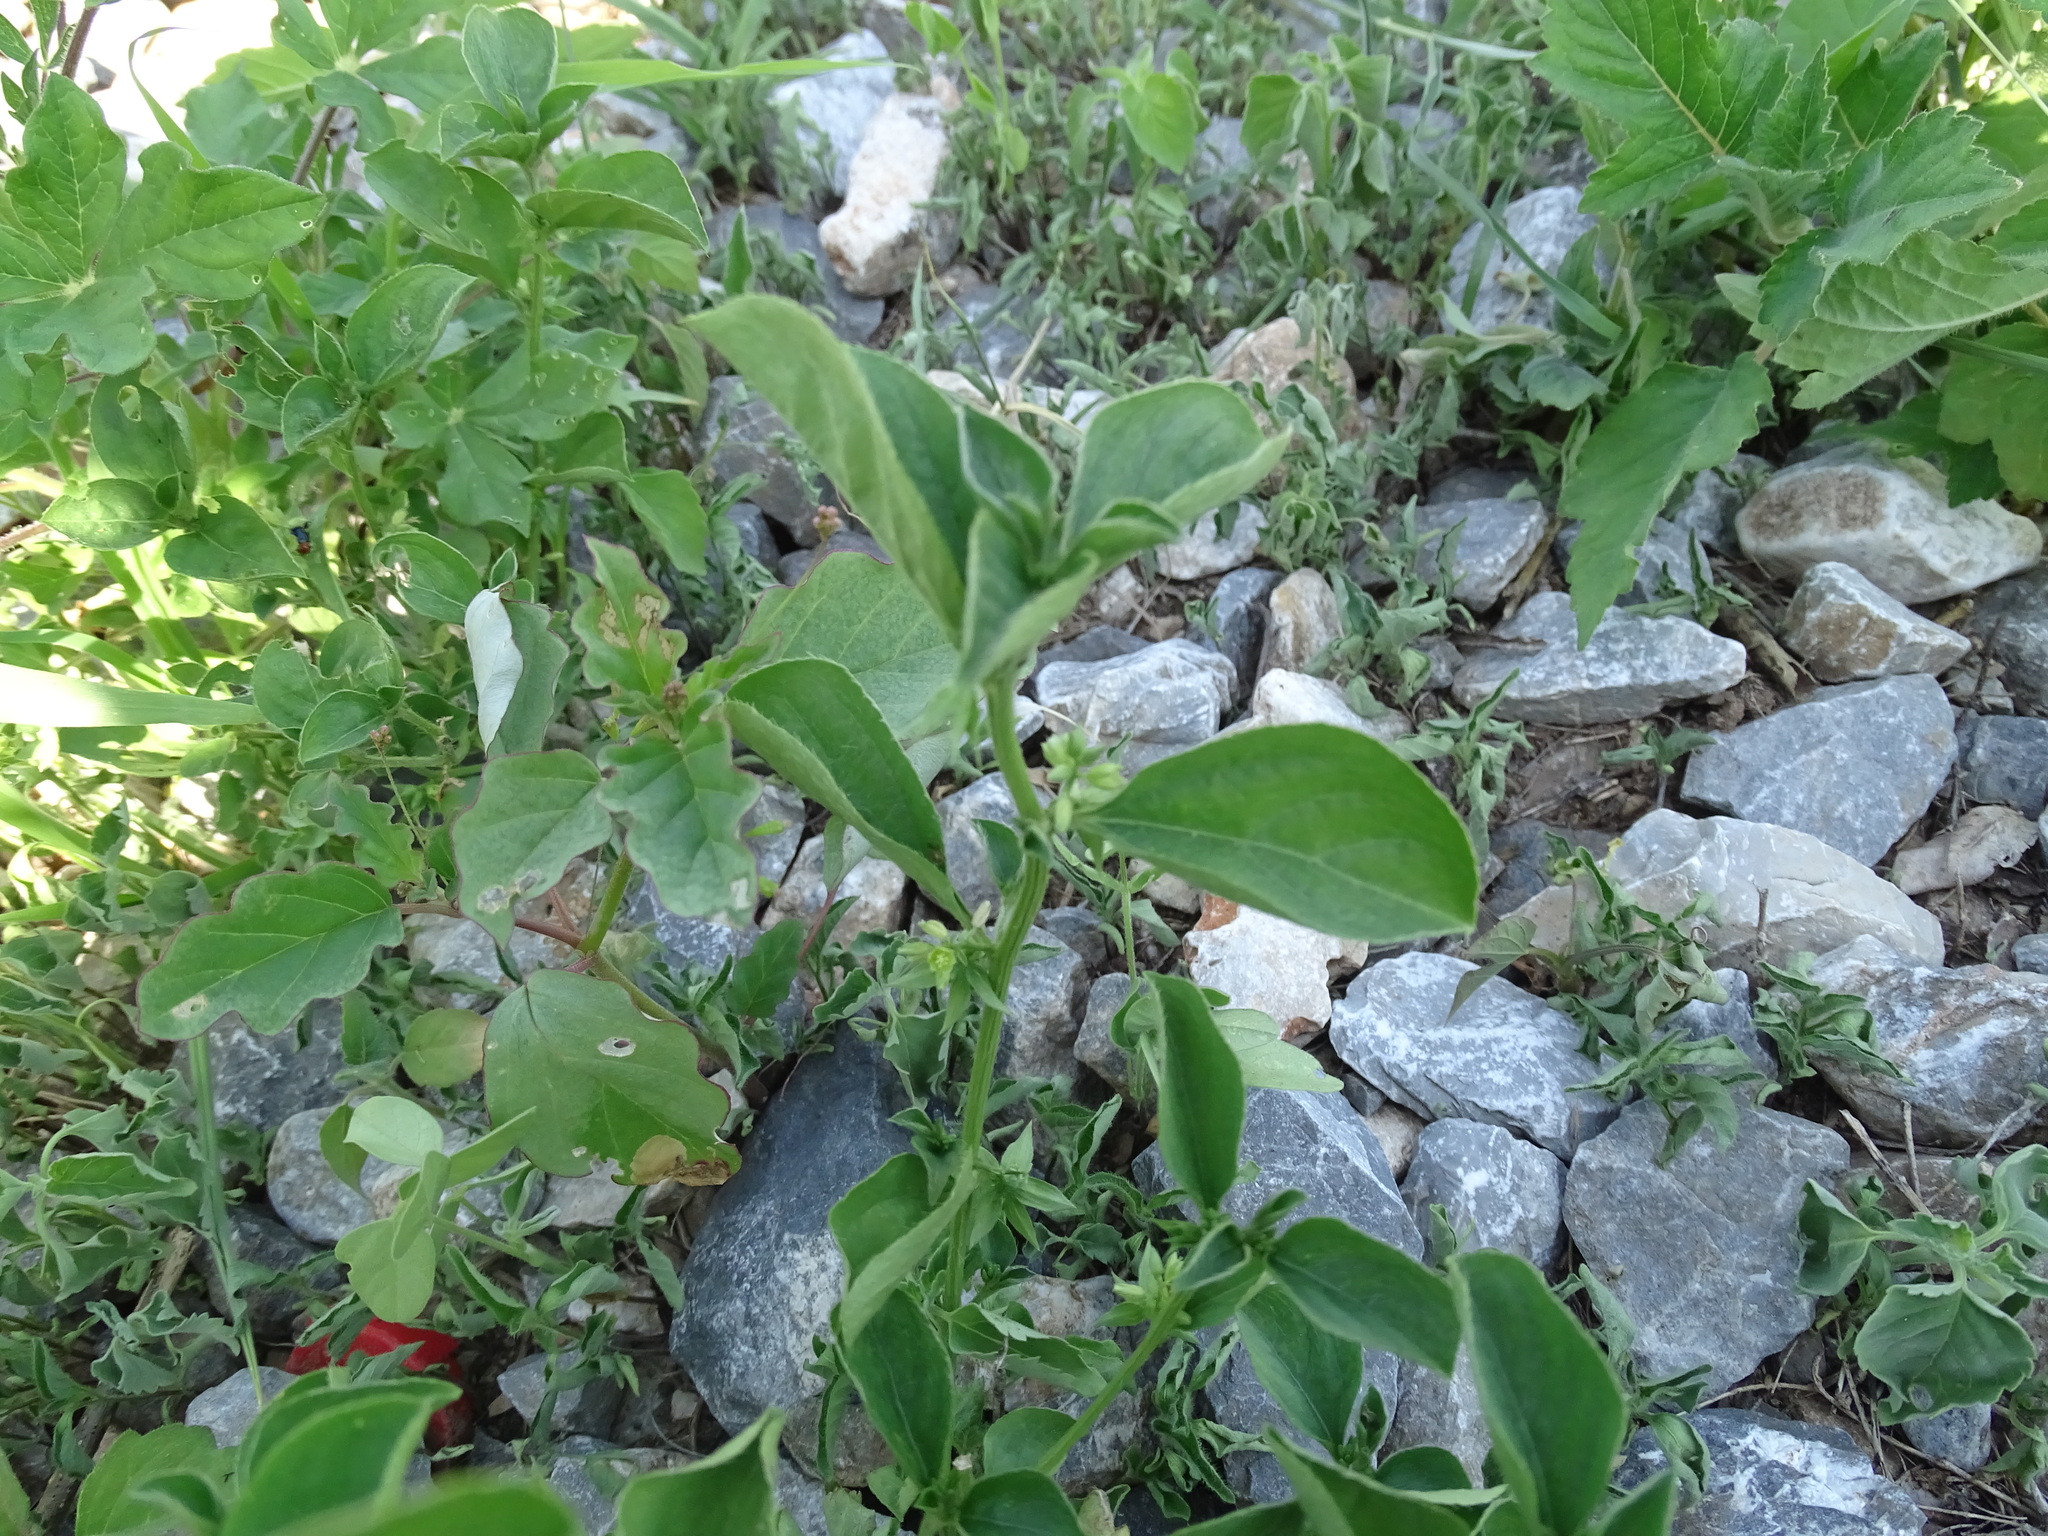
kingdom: Plantae
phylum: Tracheophyta
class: Magnoliopsida
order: Malpighiales
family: Euphorbiaceae
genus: Ditaxis
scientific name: Ditaxis serrata
